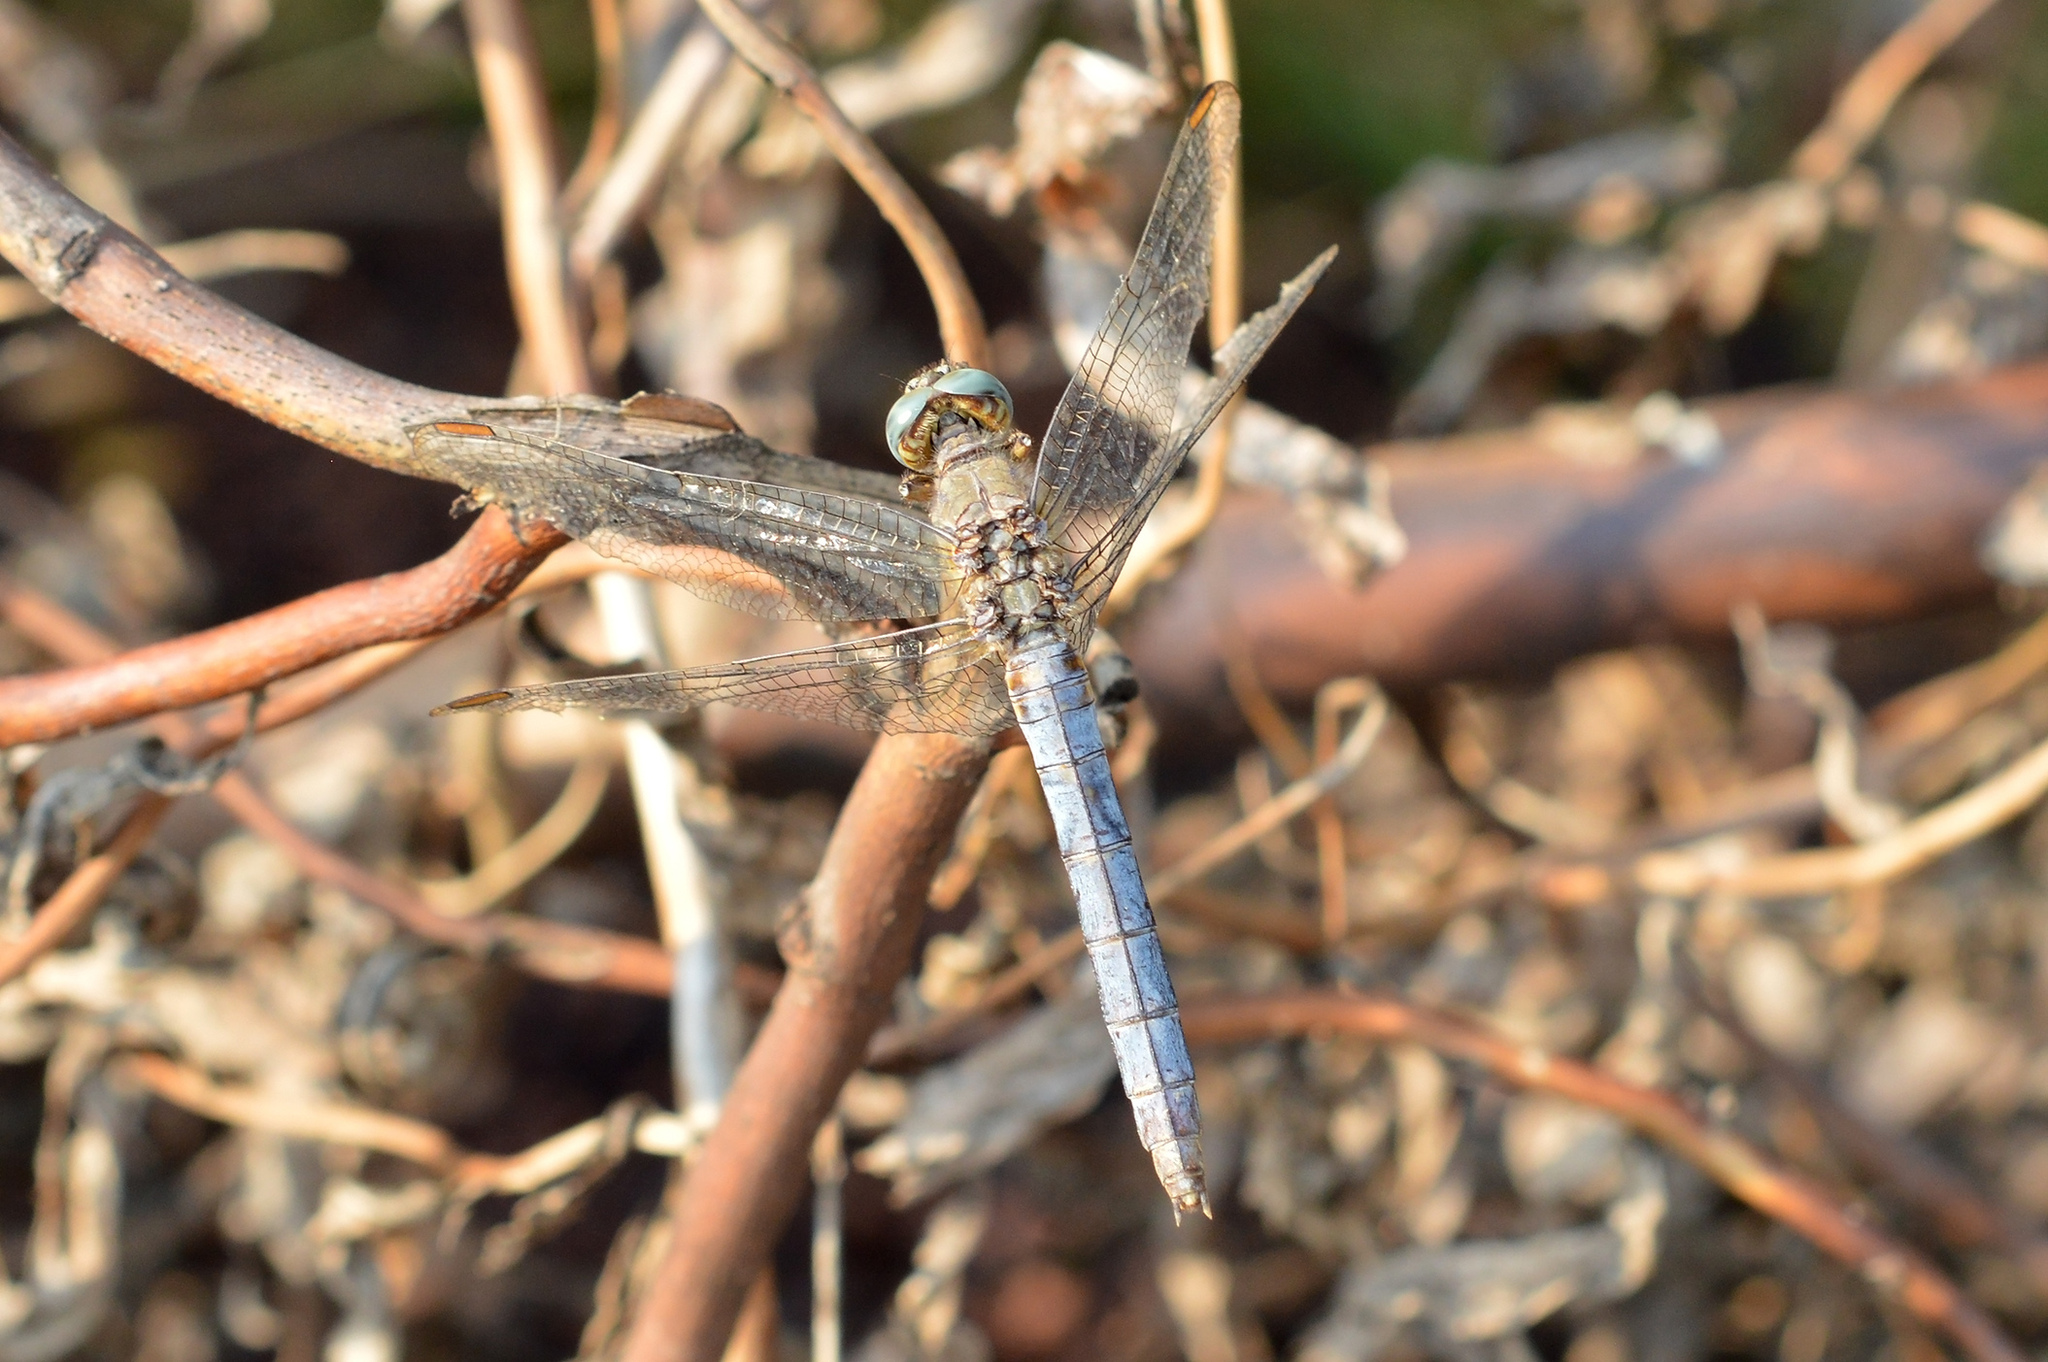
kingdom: Animalia
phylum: Arthropoda
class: Insecta
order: Odonata
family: Libellulidae
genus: Orthetrum
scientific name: Orthetrum coerulescens
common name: Keeled skimmer
